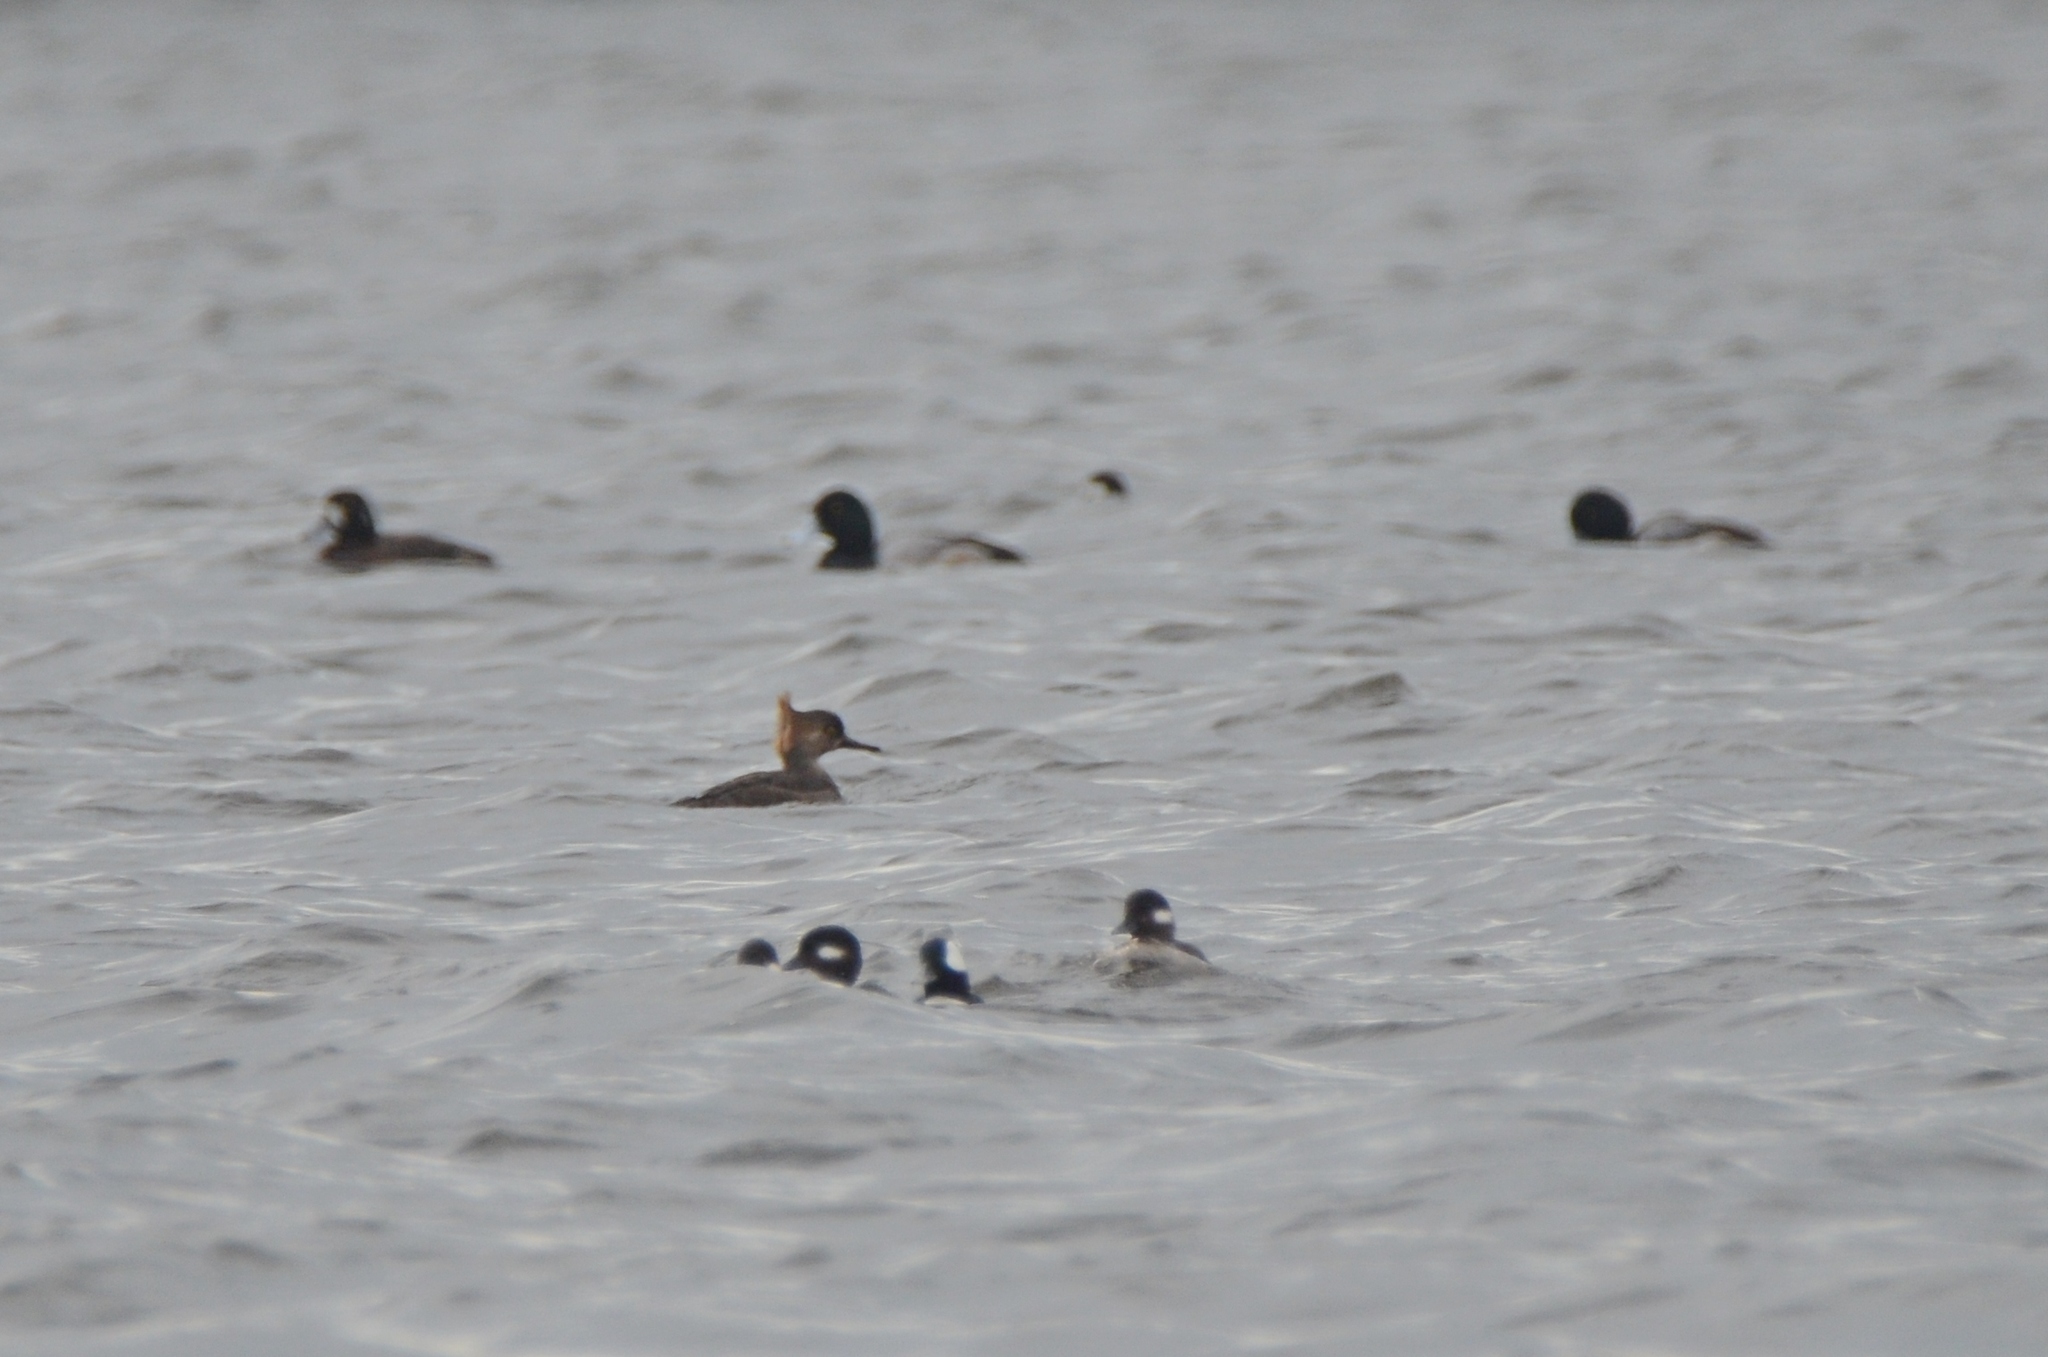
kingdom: Animalia
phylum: Chordata
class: Aves
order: Anseriformes
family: Anatidae
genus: Lophodytes
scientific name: Lophodytes cucullatus
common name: Hooded merganser
